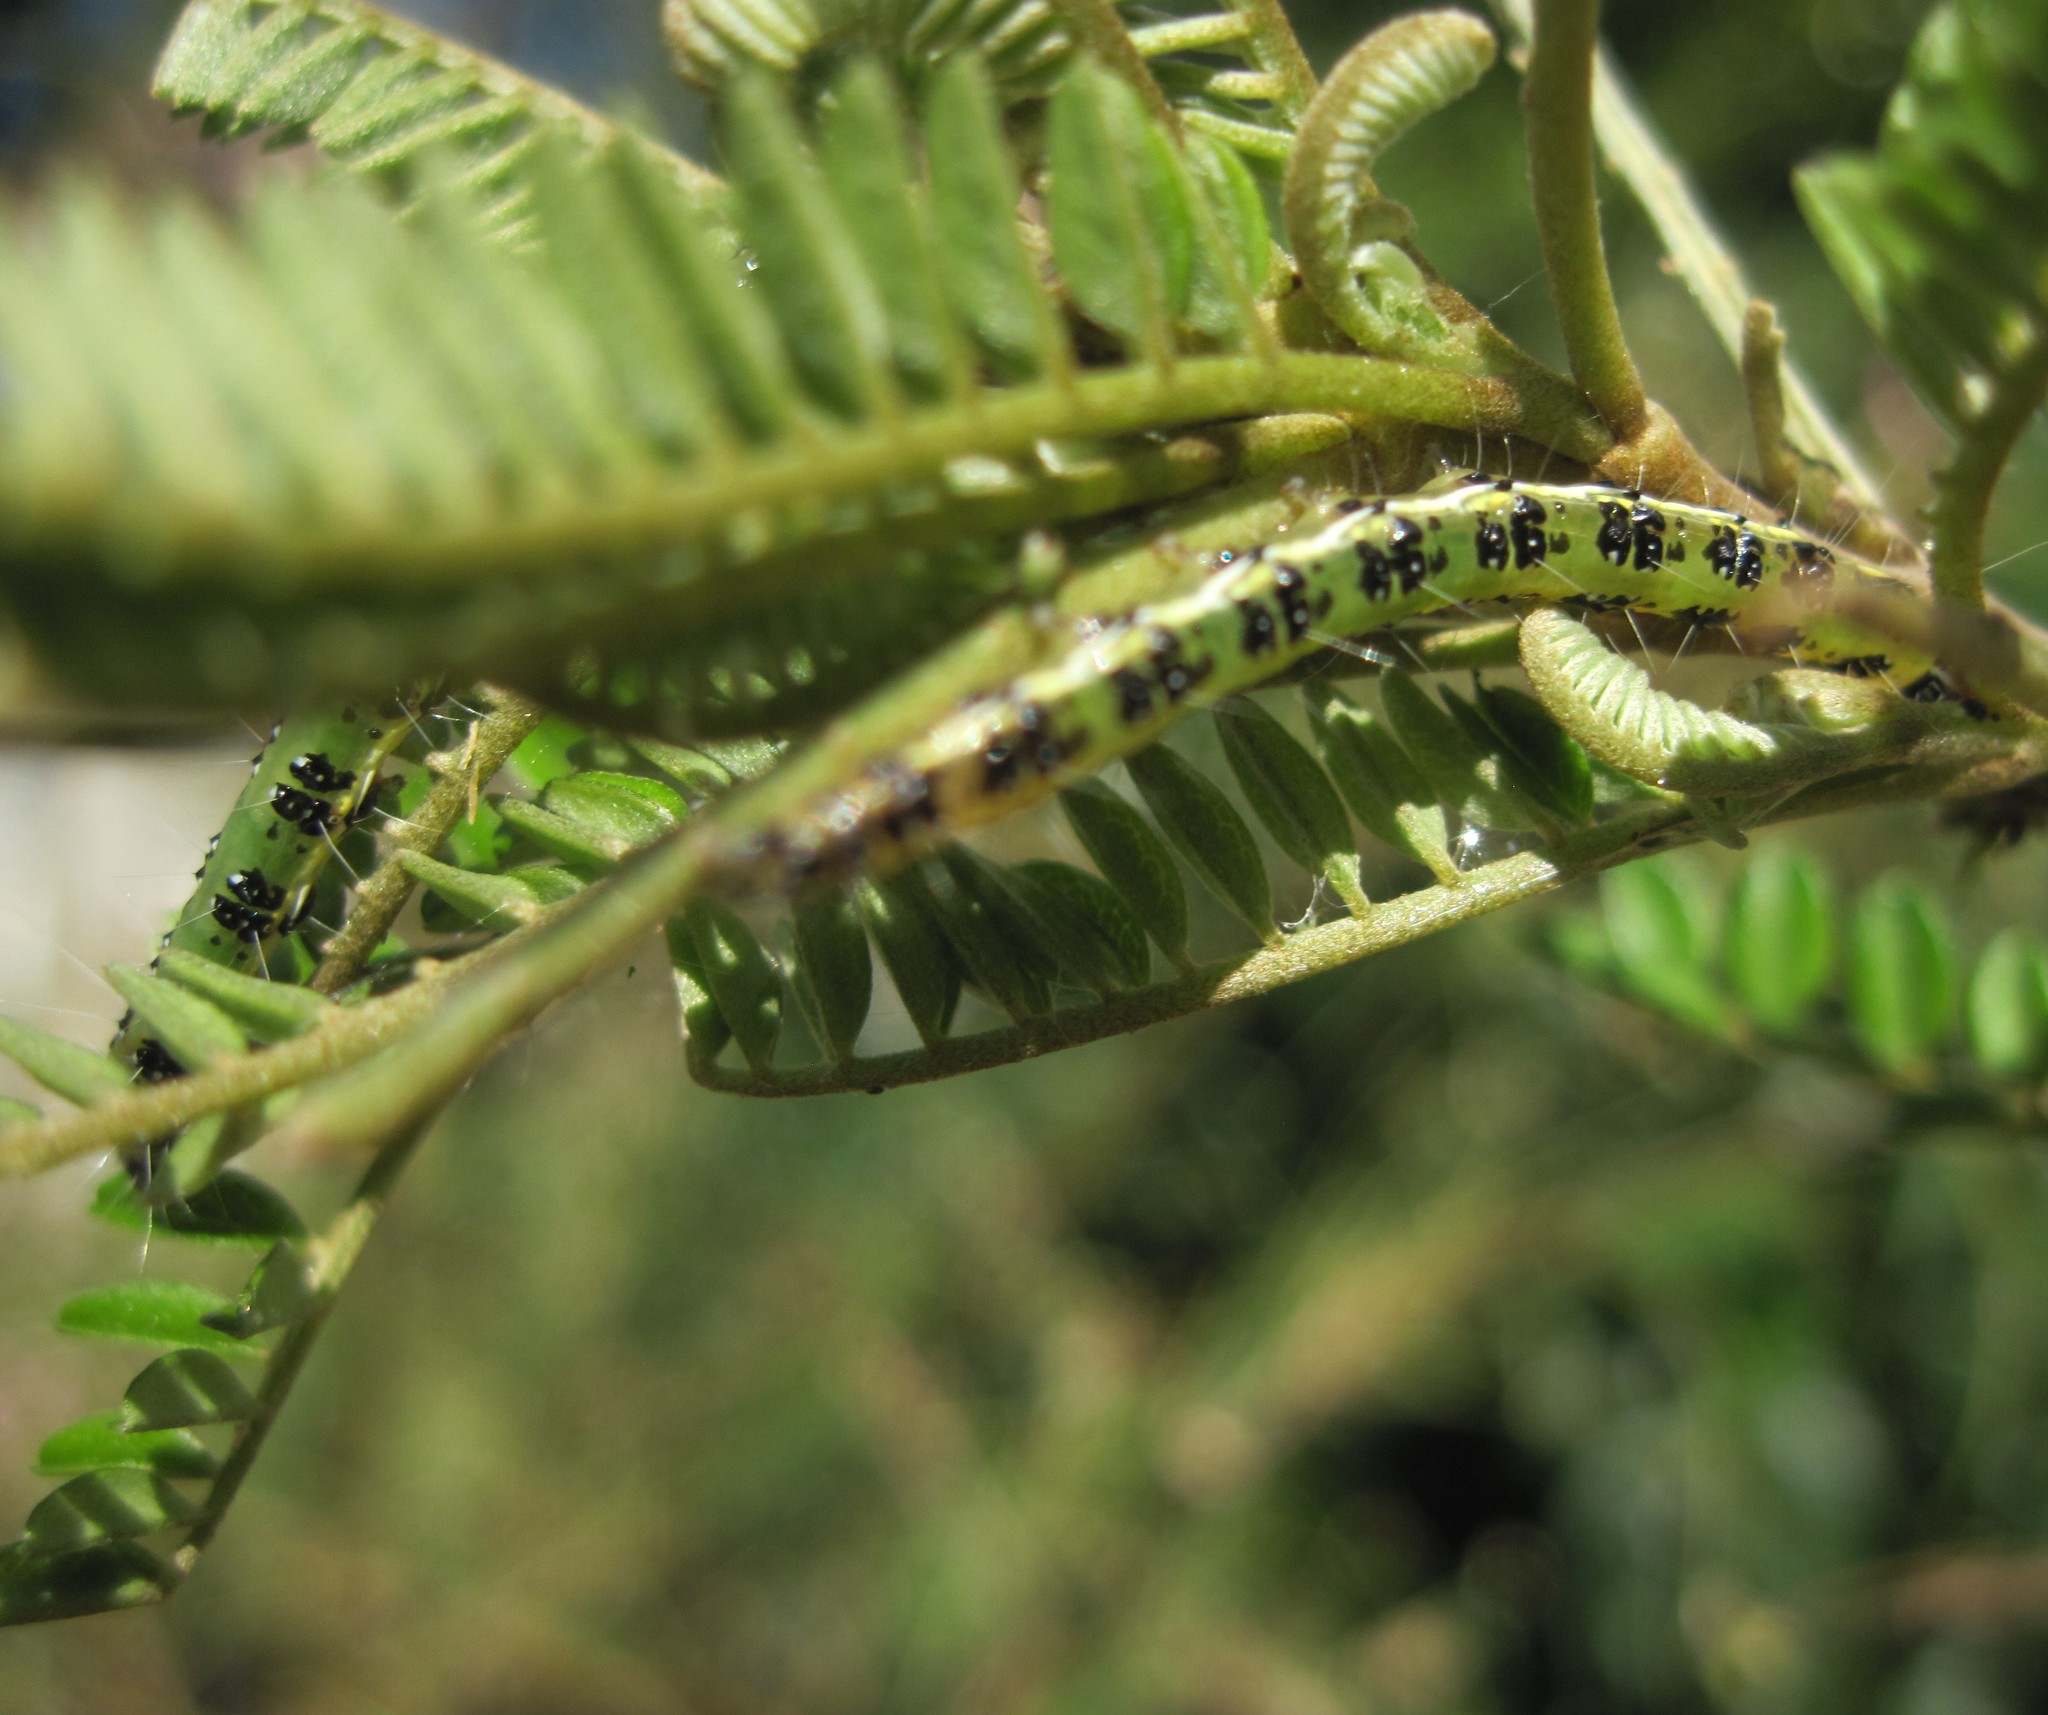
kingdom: Animalia
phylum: Arthropoda
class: Insecta
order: Lepidoptera
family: Crambidae
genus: Uresiphita
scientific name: Uresiphita
